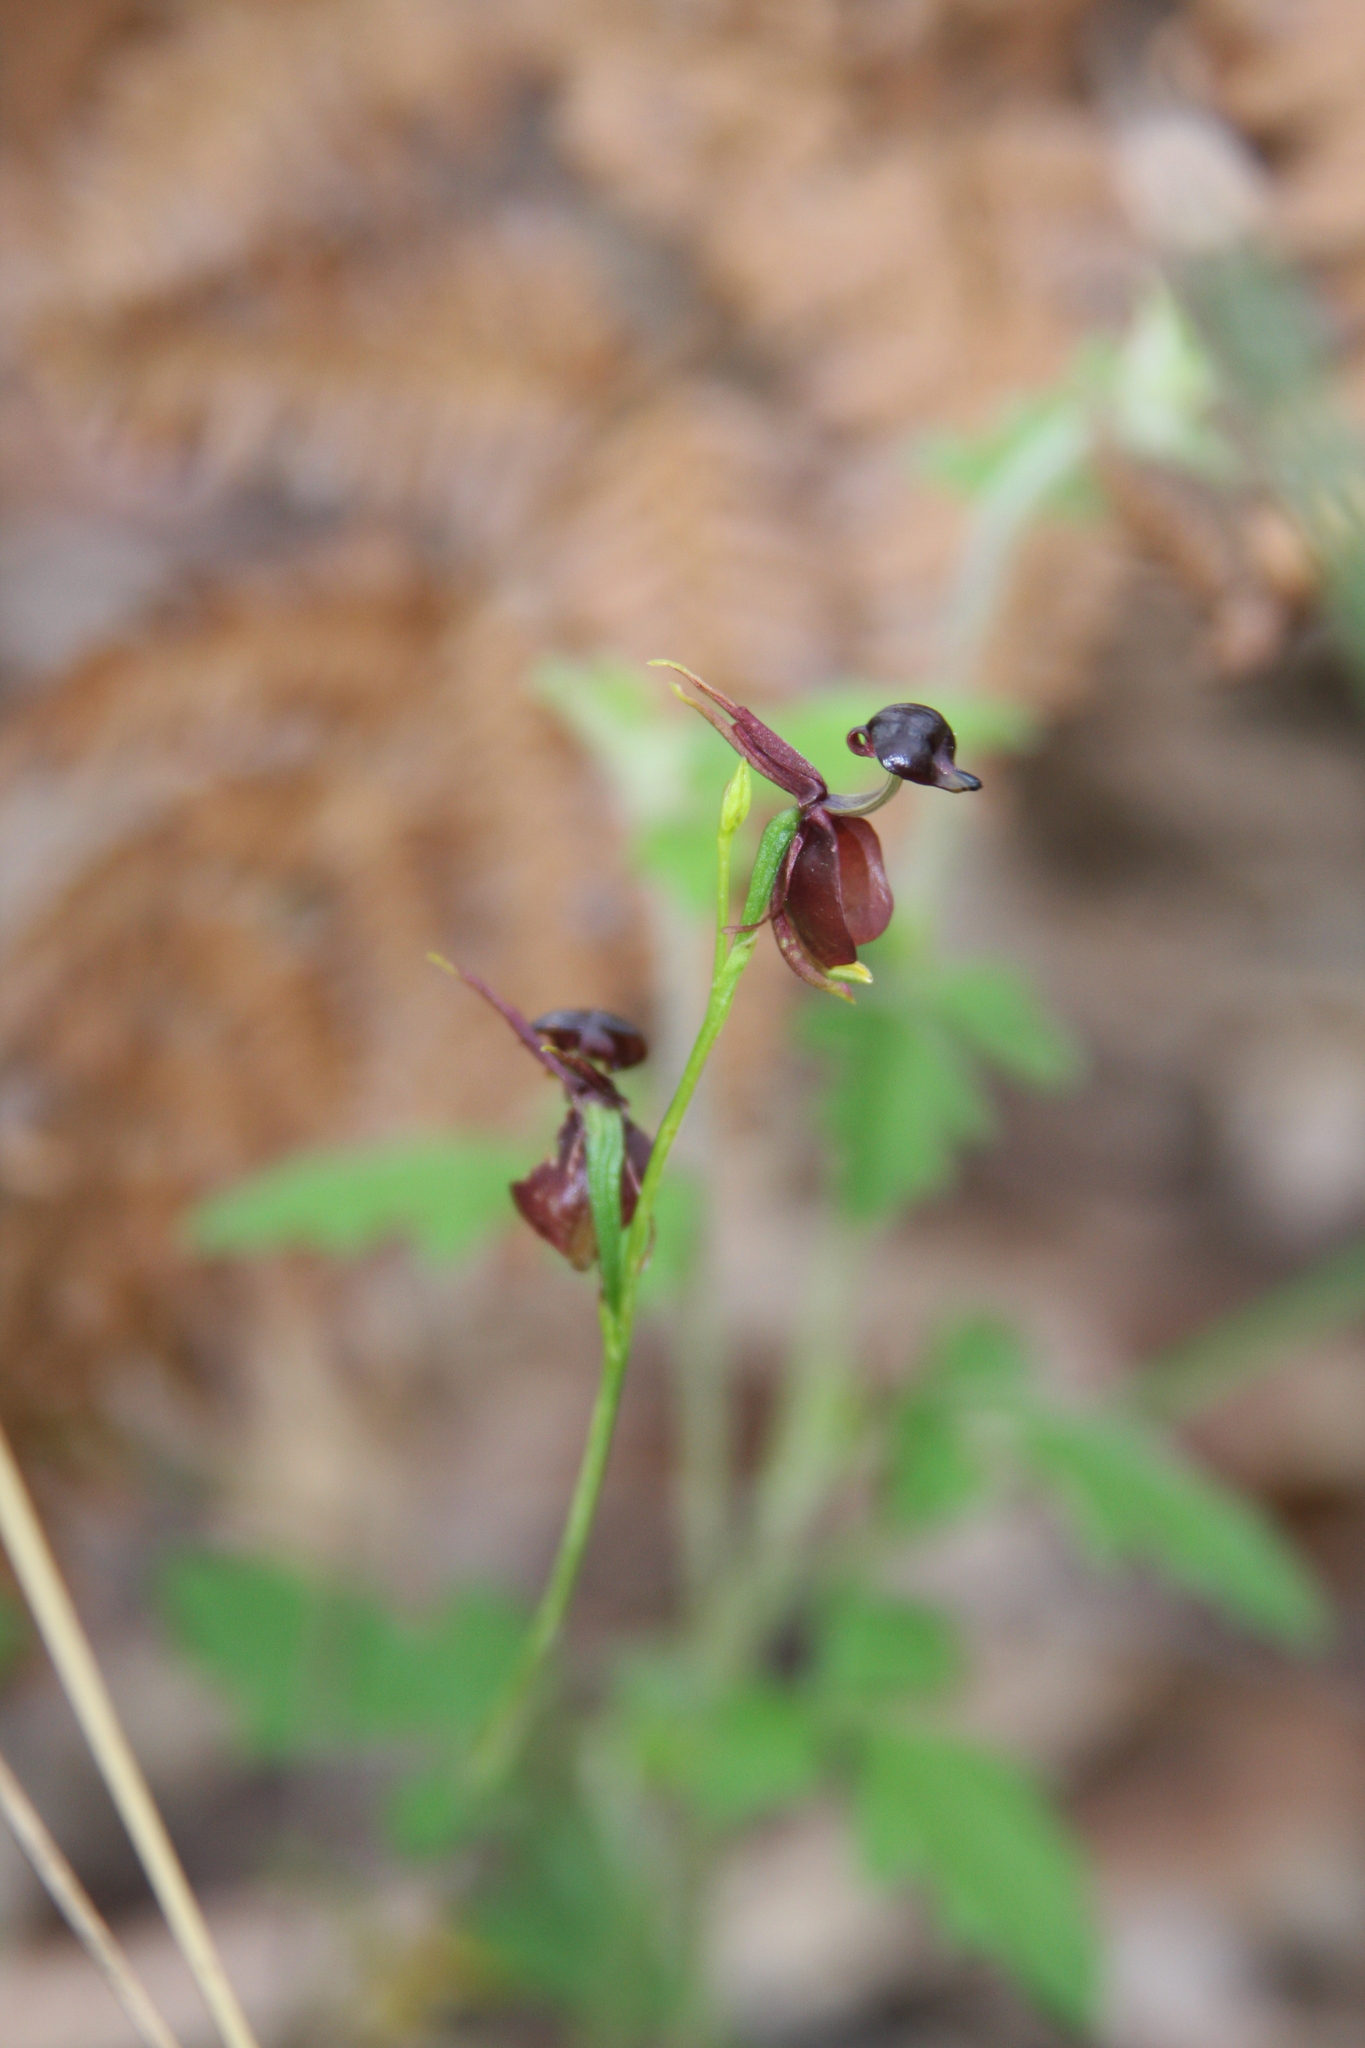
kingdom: Plantae
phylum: Tracheophyta
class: Liliopsida
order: Asparagales
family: Orchidaceae
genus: Caleana
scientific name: Caleana major
